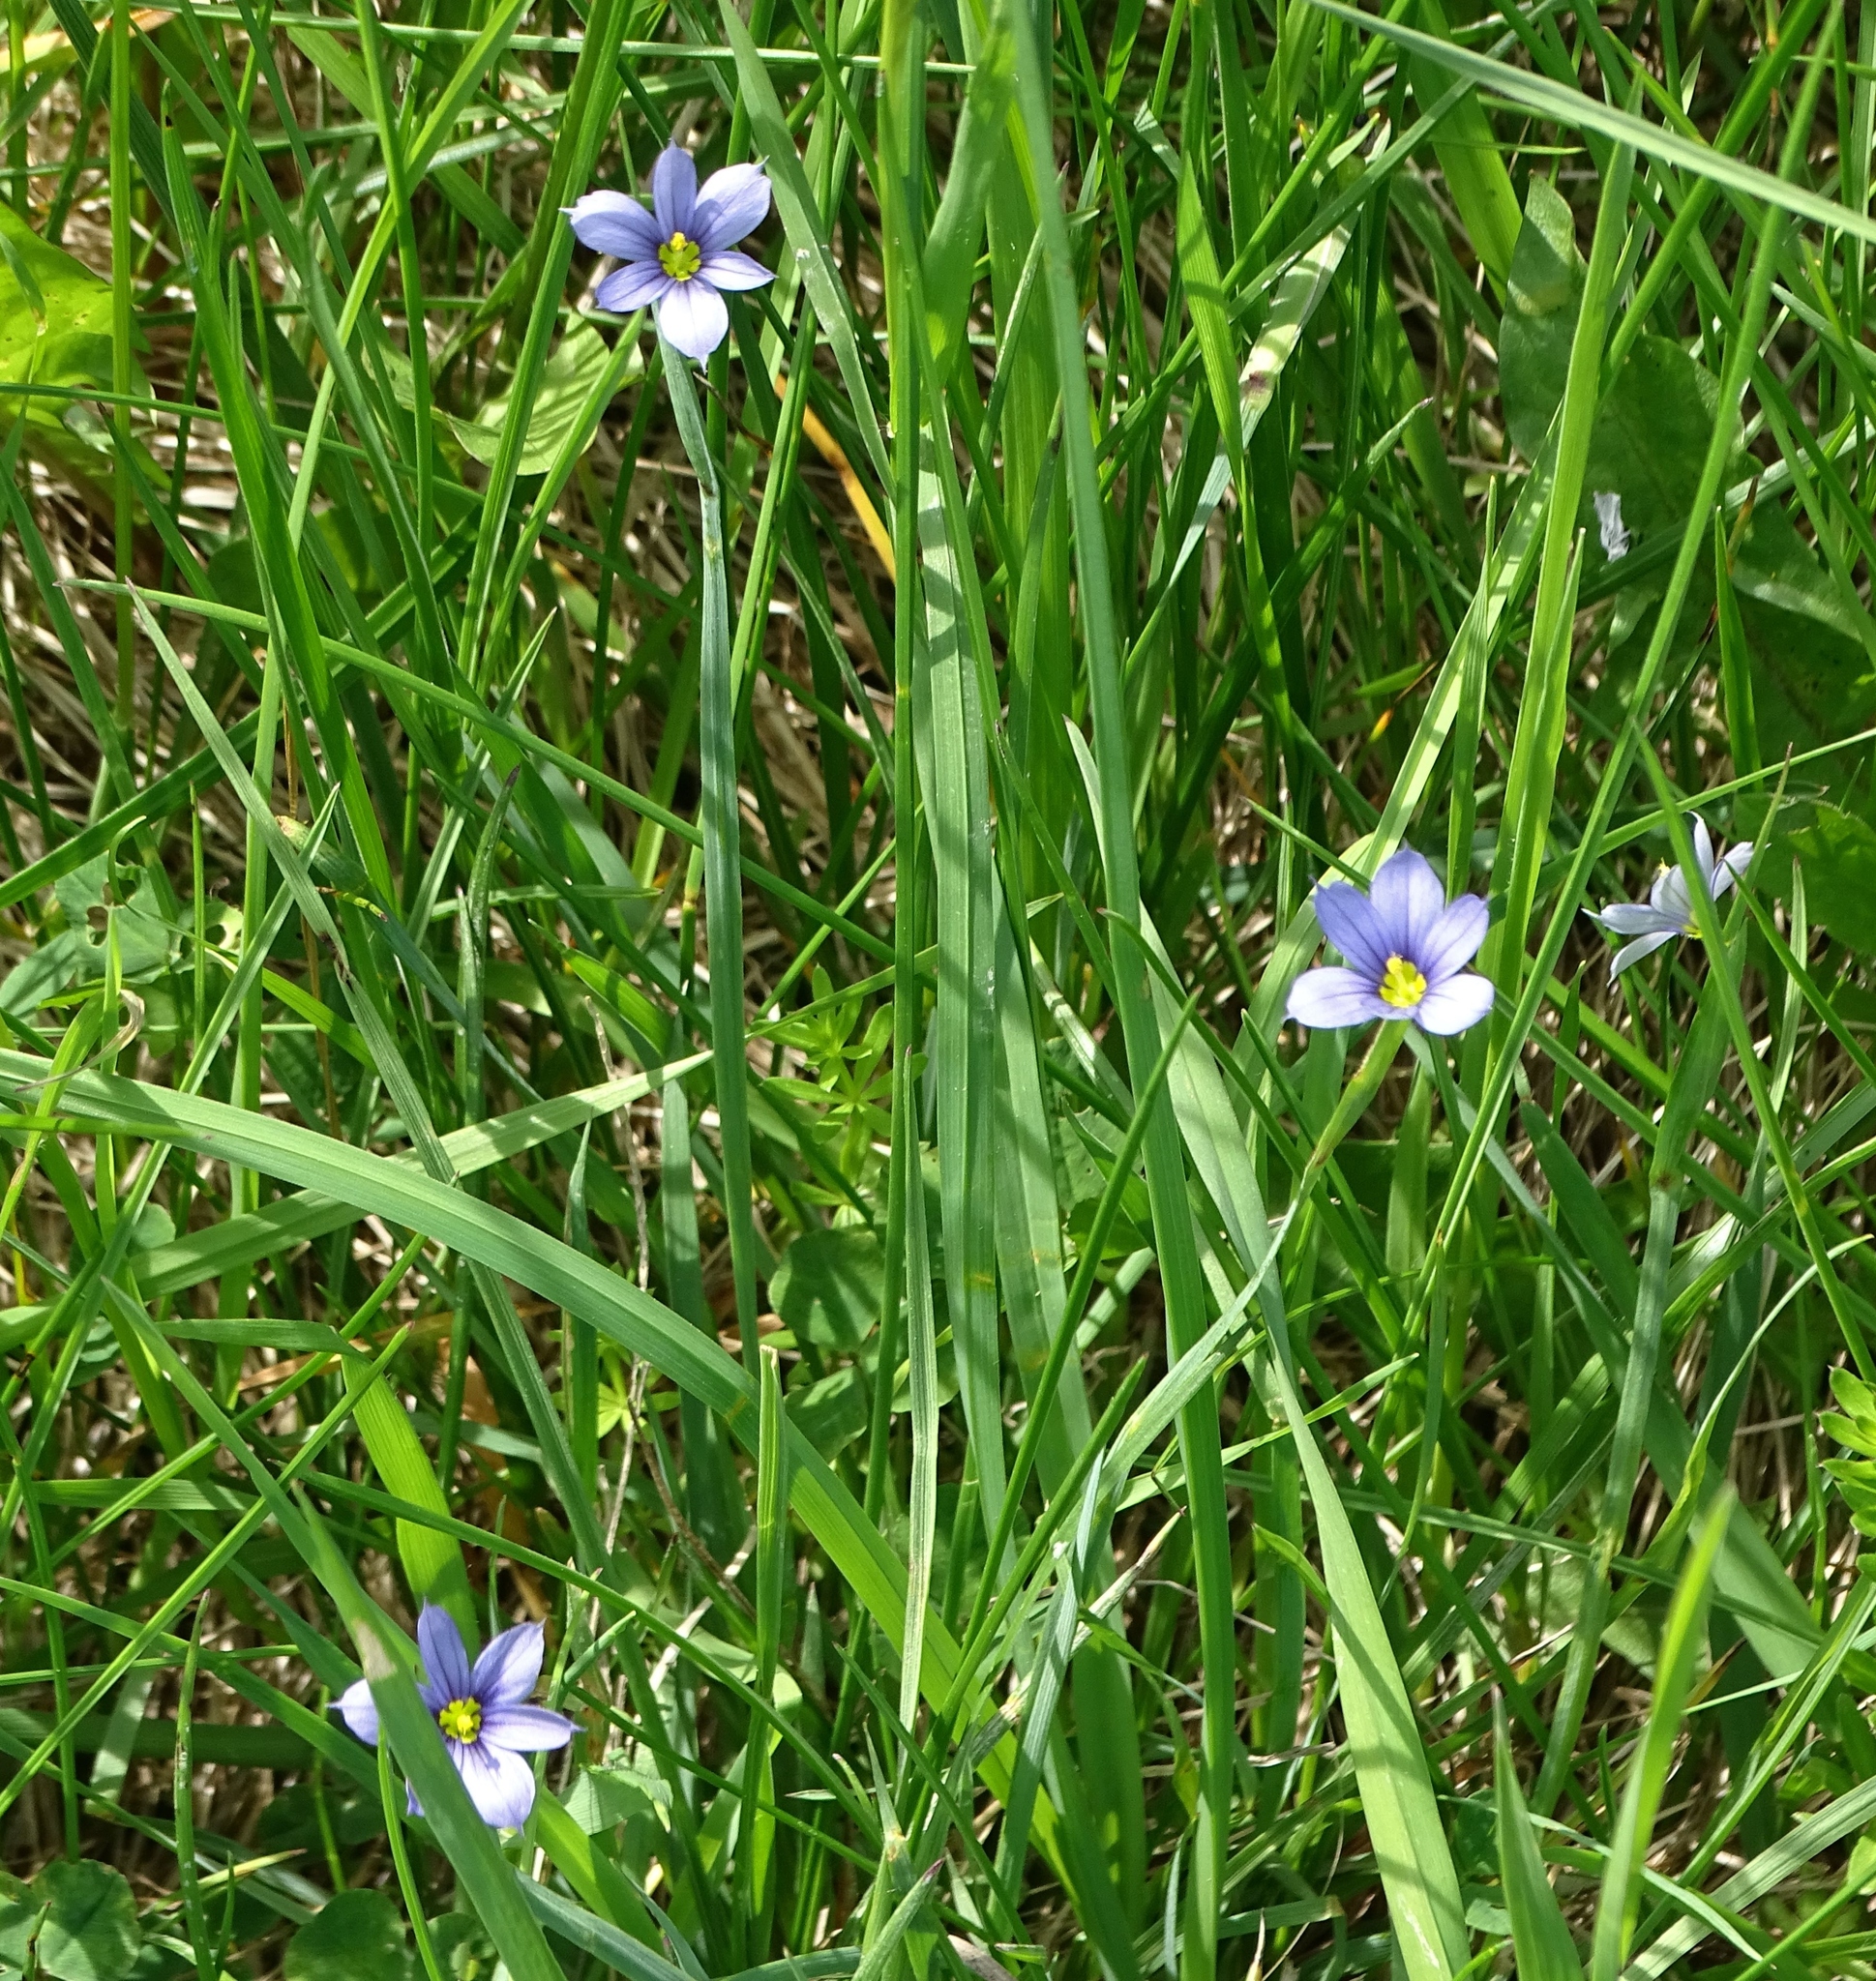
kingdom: Plantae
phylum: Tracheophyta
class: Liliopsida
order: Asparagales
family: Iridaceae
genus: Sisyrinchium
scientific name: Sisyrinchium montanum
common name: American blue-eyed-grass
